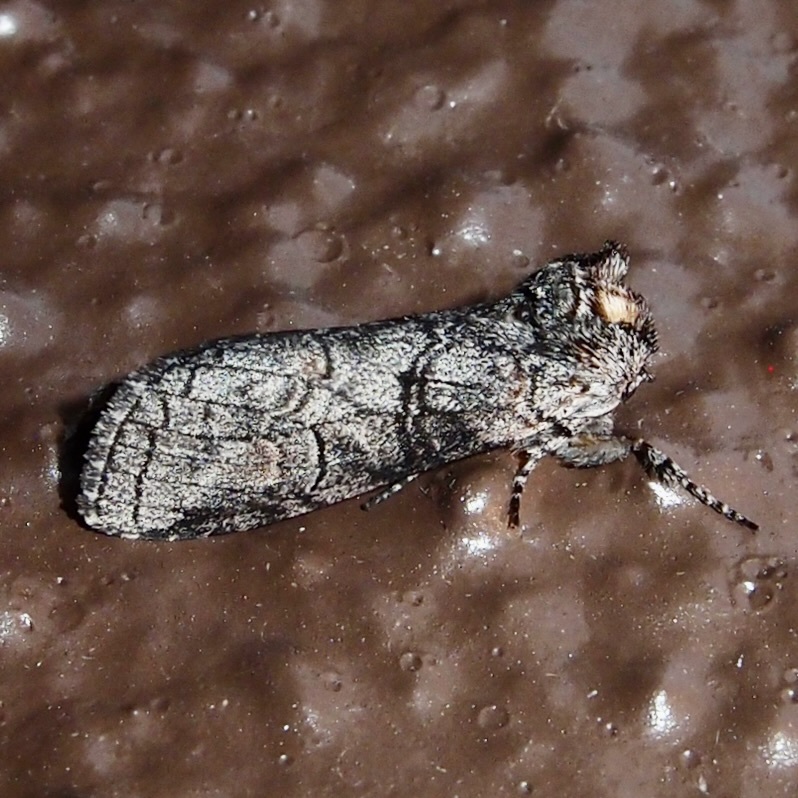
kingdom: Animalia
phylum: Arthropoda
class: Insecta
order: Lepidoptera
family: Notodontidae
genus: Afilia
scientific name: Afilia oslari
